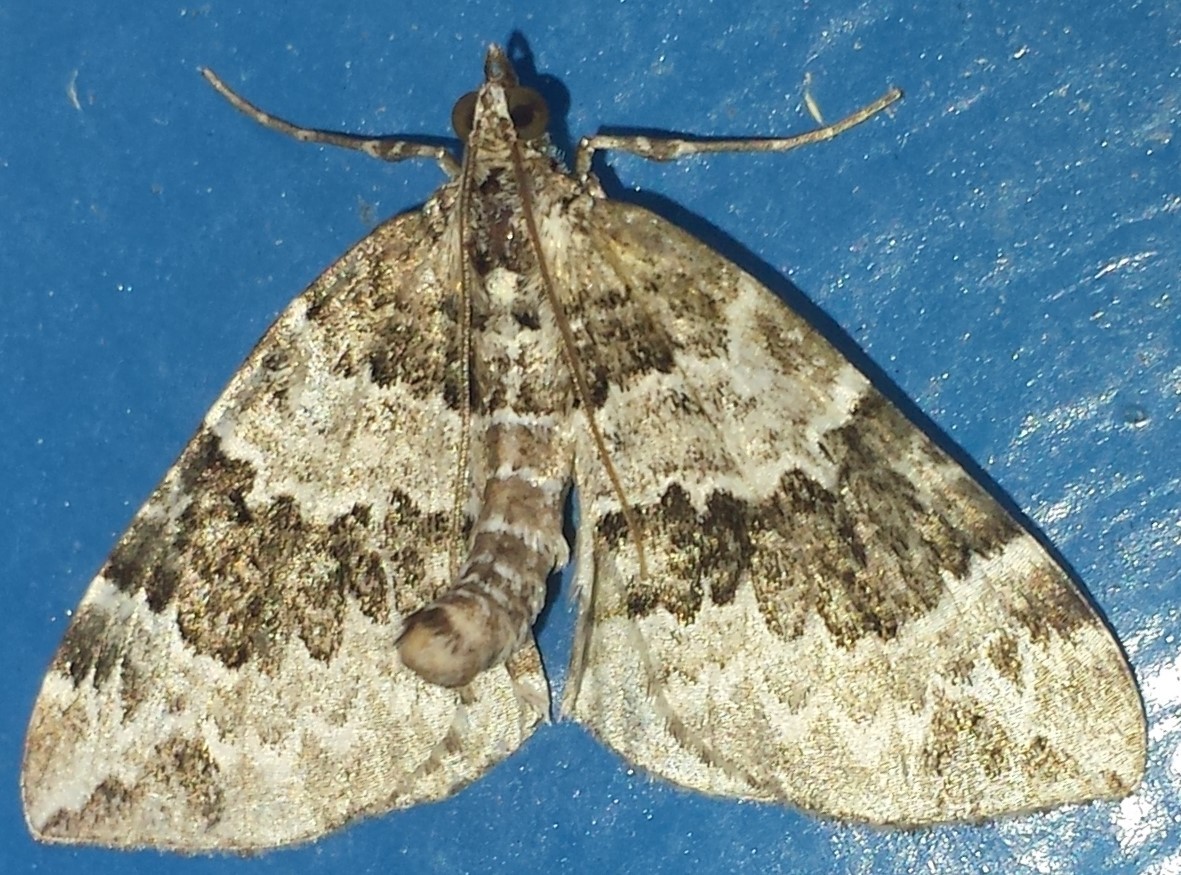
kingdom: Animalia
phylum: Arthropoda
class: Insecta
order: Lepidoptera
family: Geometridae
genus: Eulithis
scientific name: Eulithis explanata
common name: White eulithis
